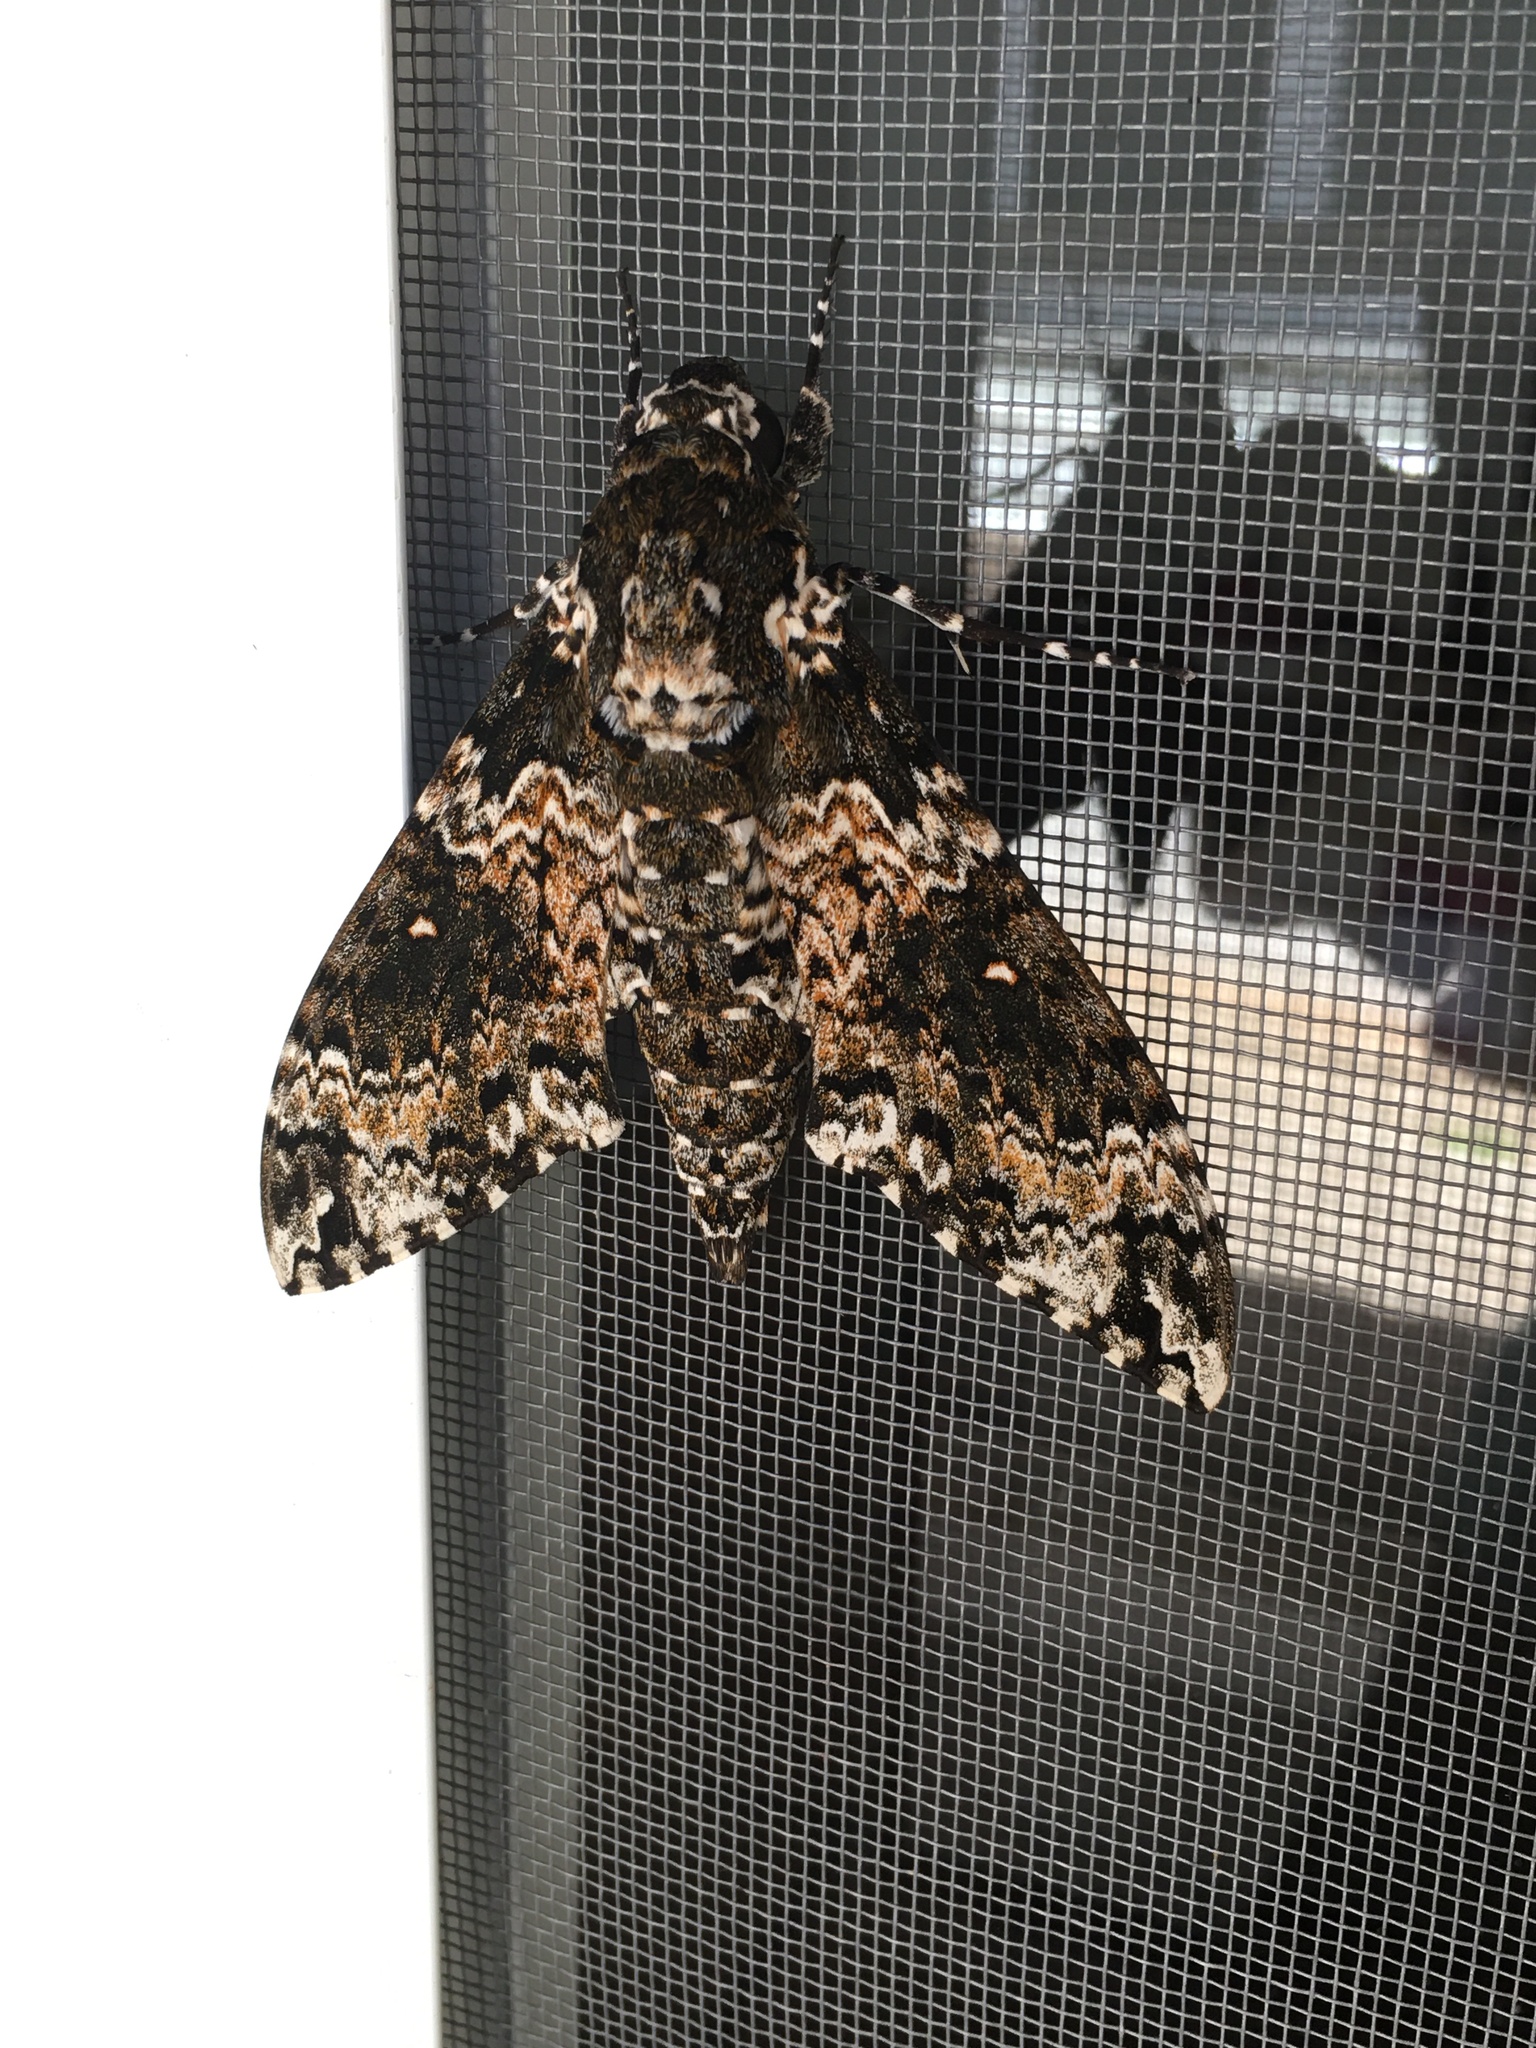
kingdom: Animalia
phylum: Arthropoda
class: Insecta
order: Lepidoptera
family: Sphingidae
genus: Manduca
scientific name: Manduca rustica
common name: Rustic sphinx
